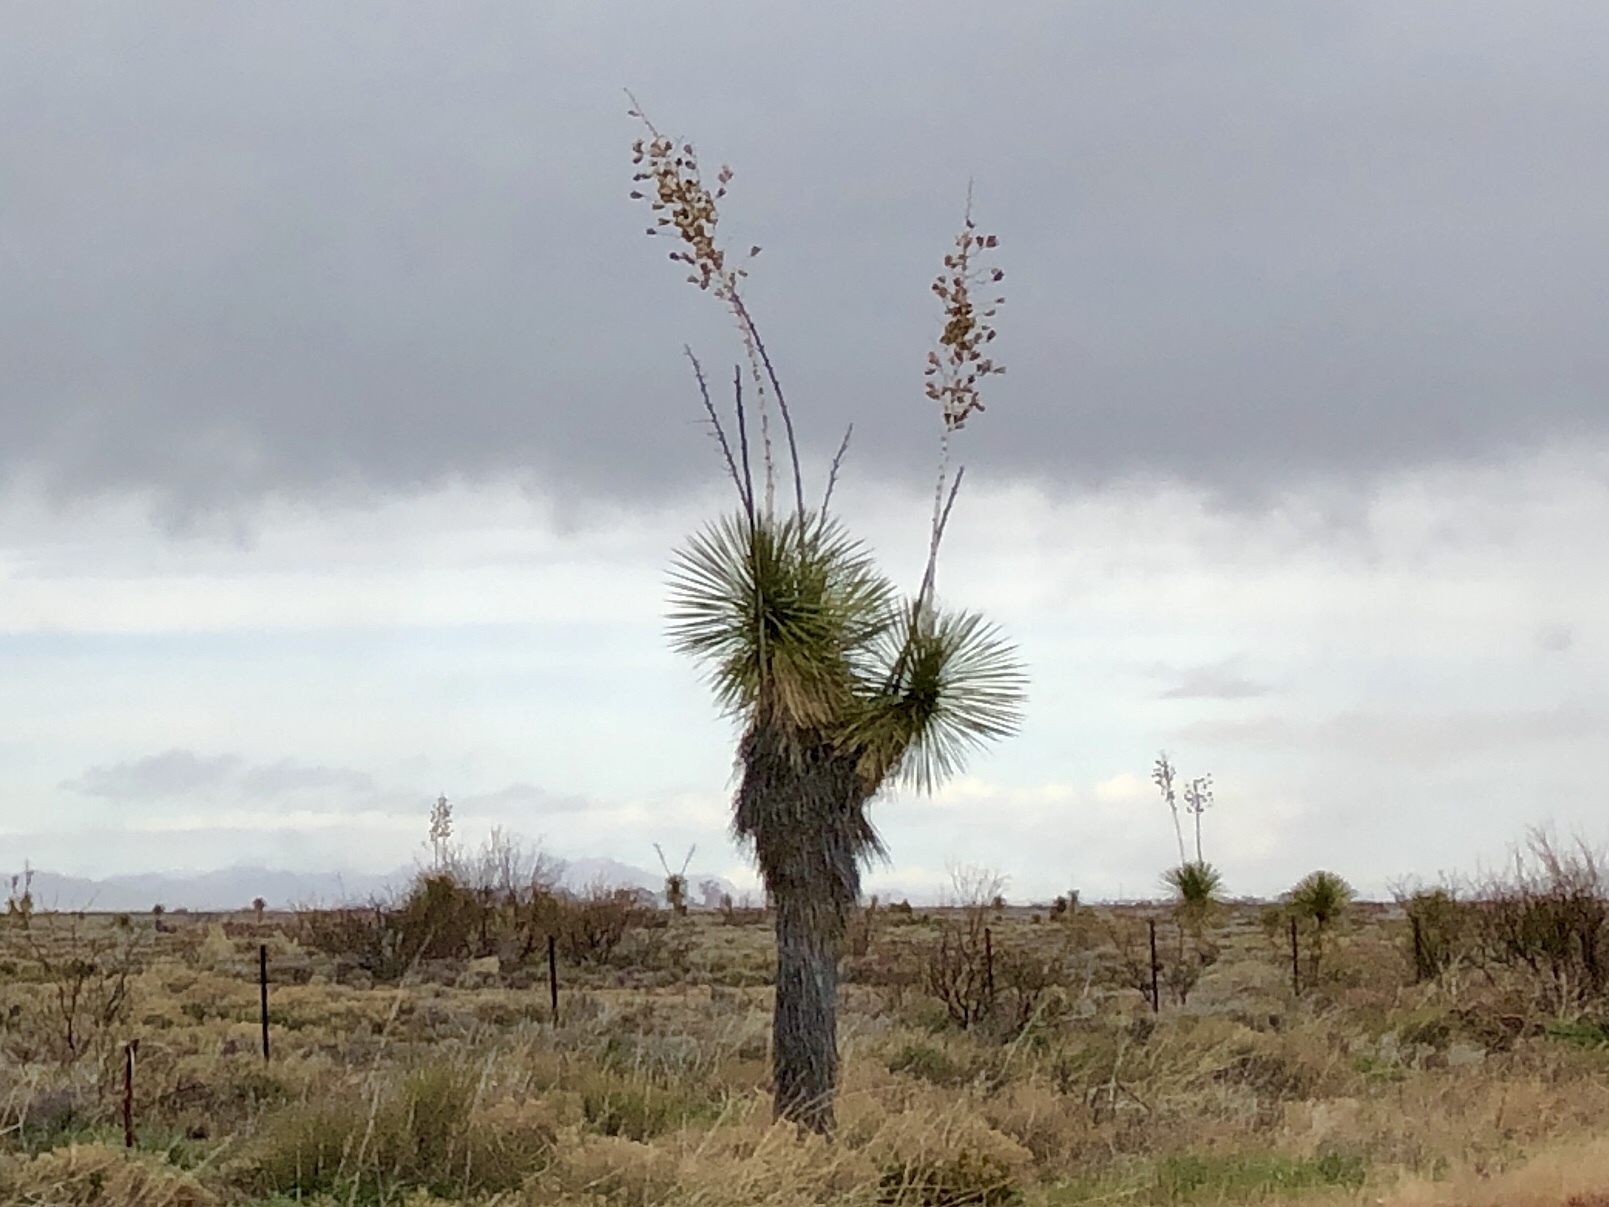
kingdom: Plantae
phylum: Tracheophyta
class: Liliopsida
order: Asparagales
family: Asparagaceae
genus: Yucca
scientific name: Yucca elata
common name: Palmella
